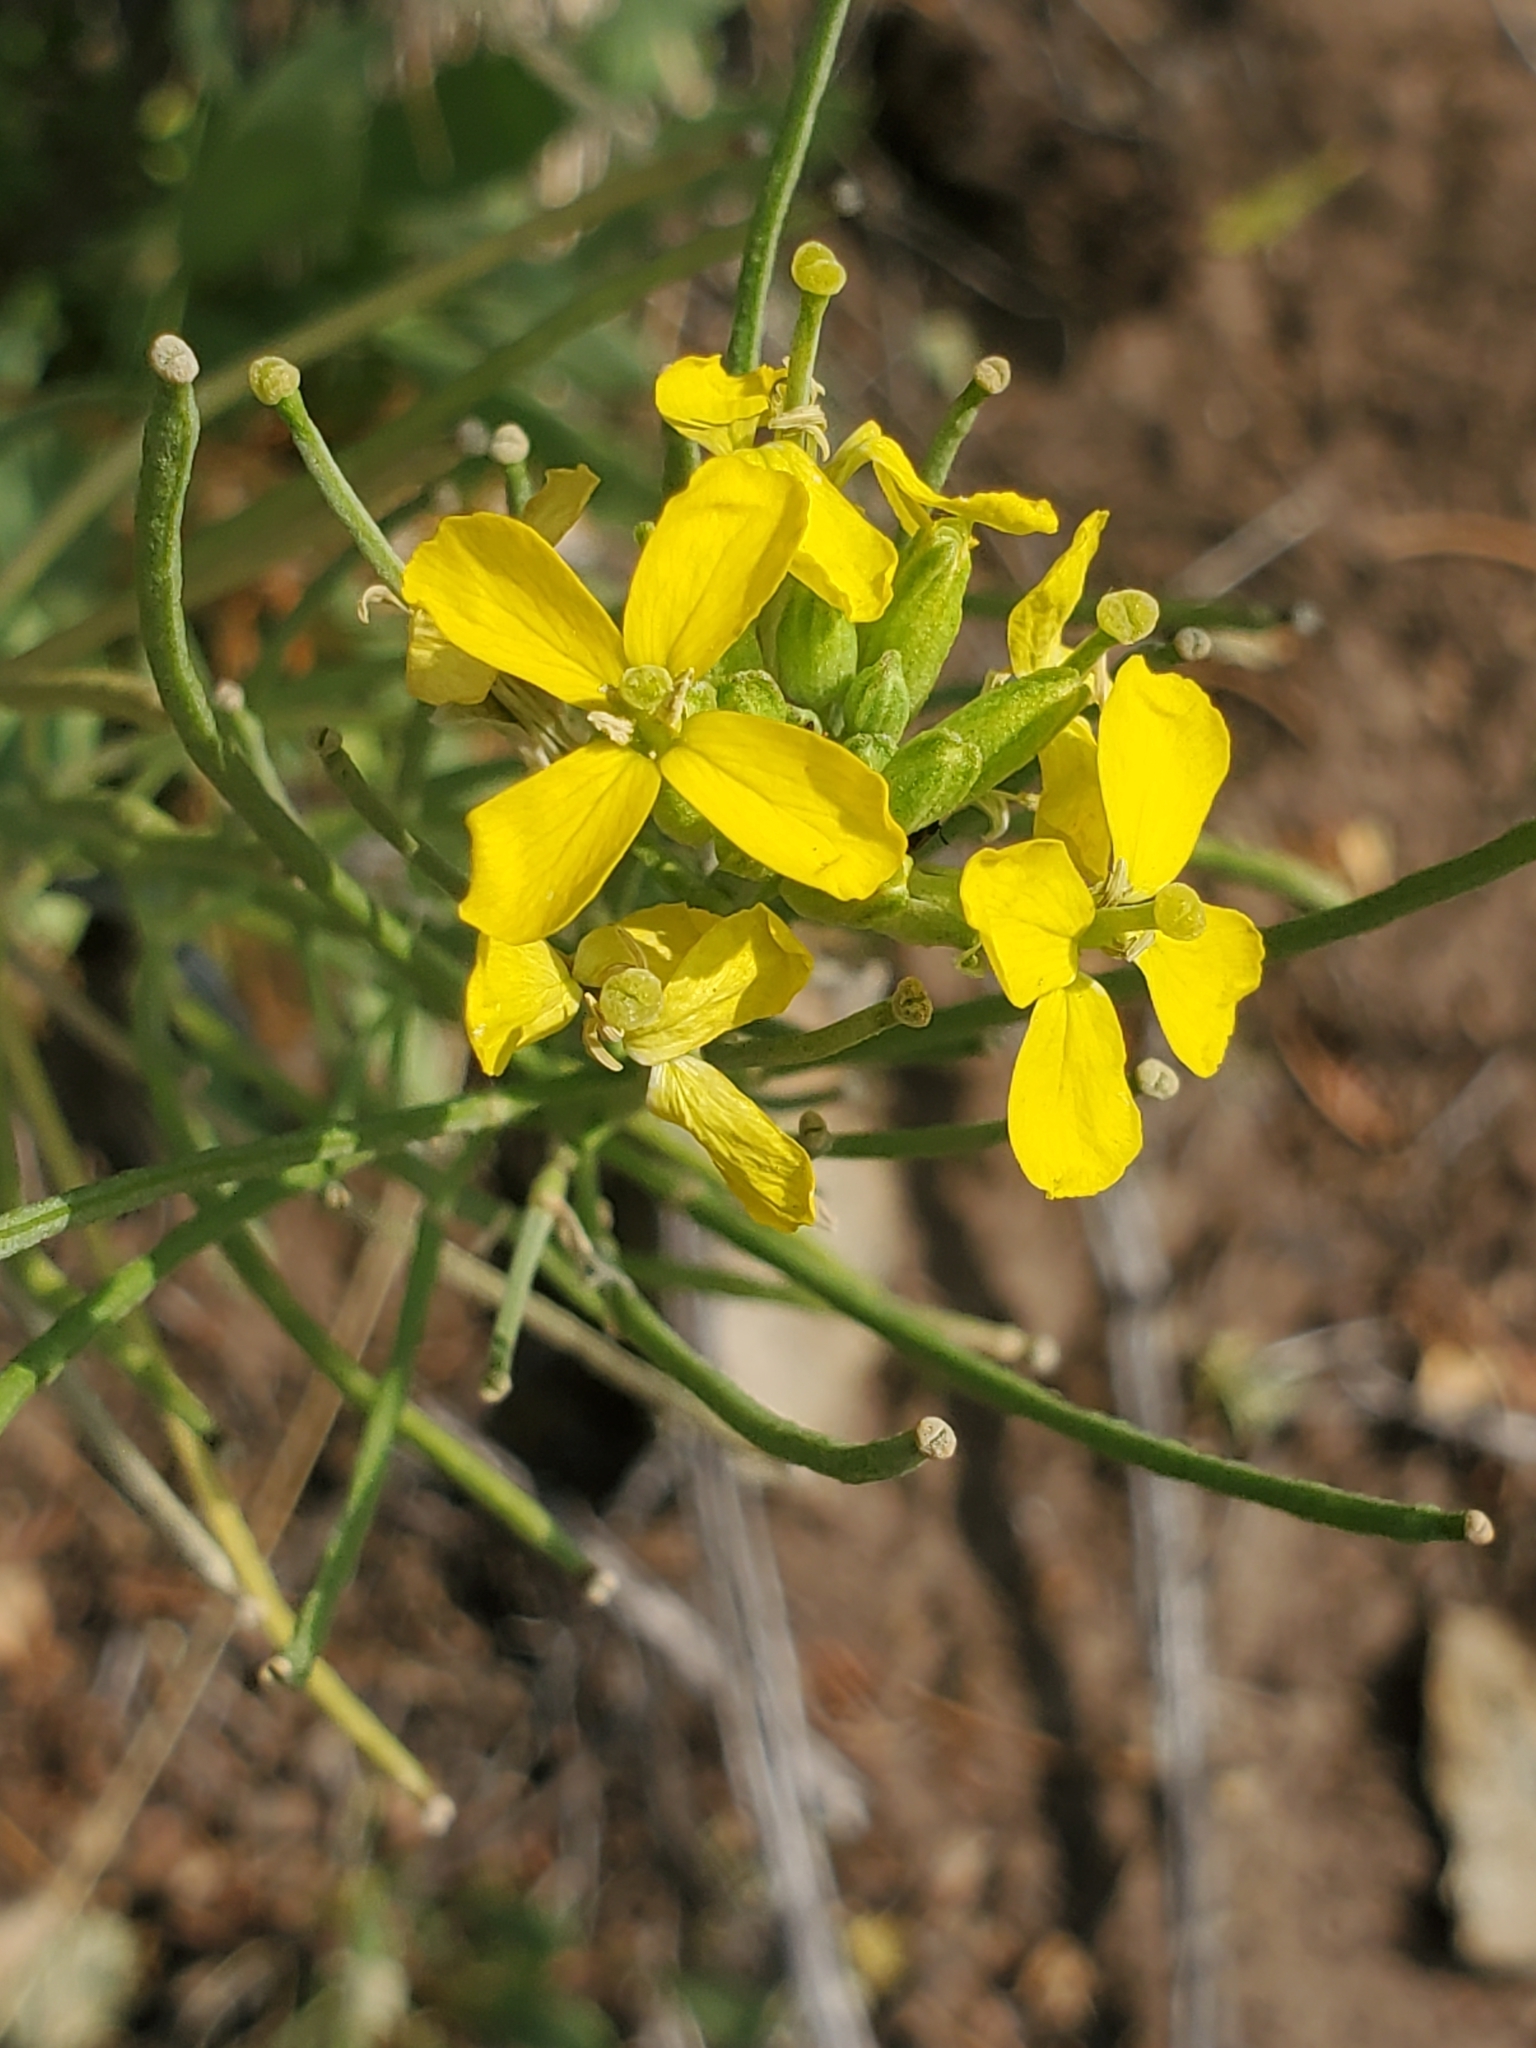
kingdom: Plantae
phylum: Tracheophyta
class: Magnoliopsida
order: Brassicales
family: Brassicaceae
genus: Erysimum
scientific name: Erysimum capitatum
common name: Western wallflower
